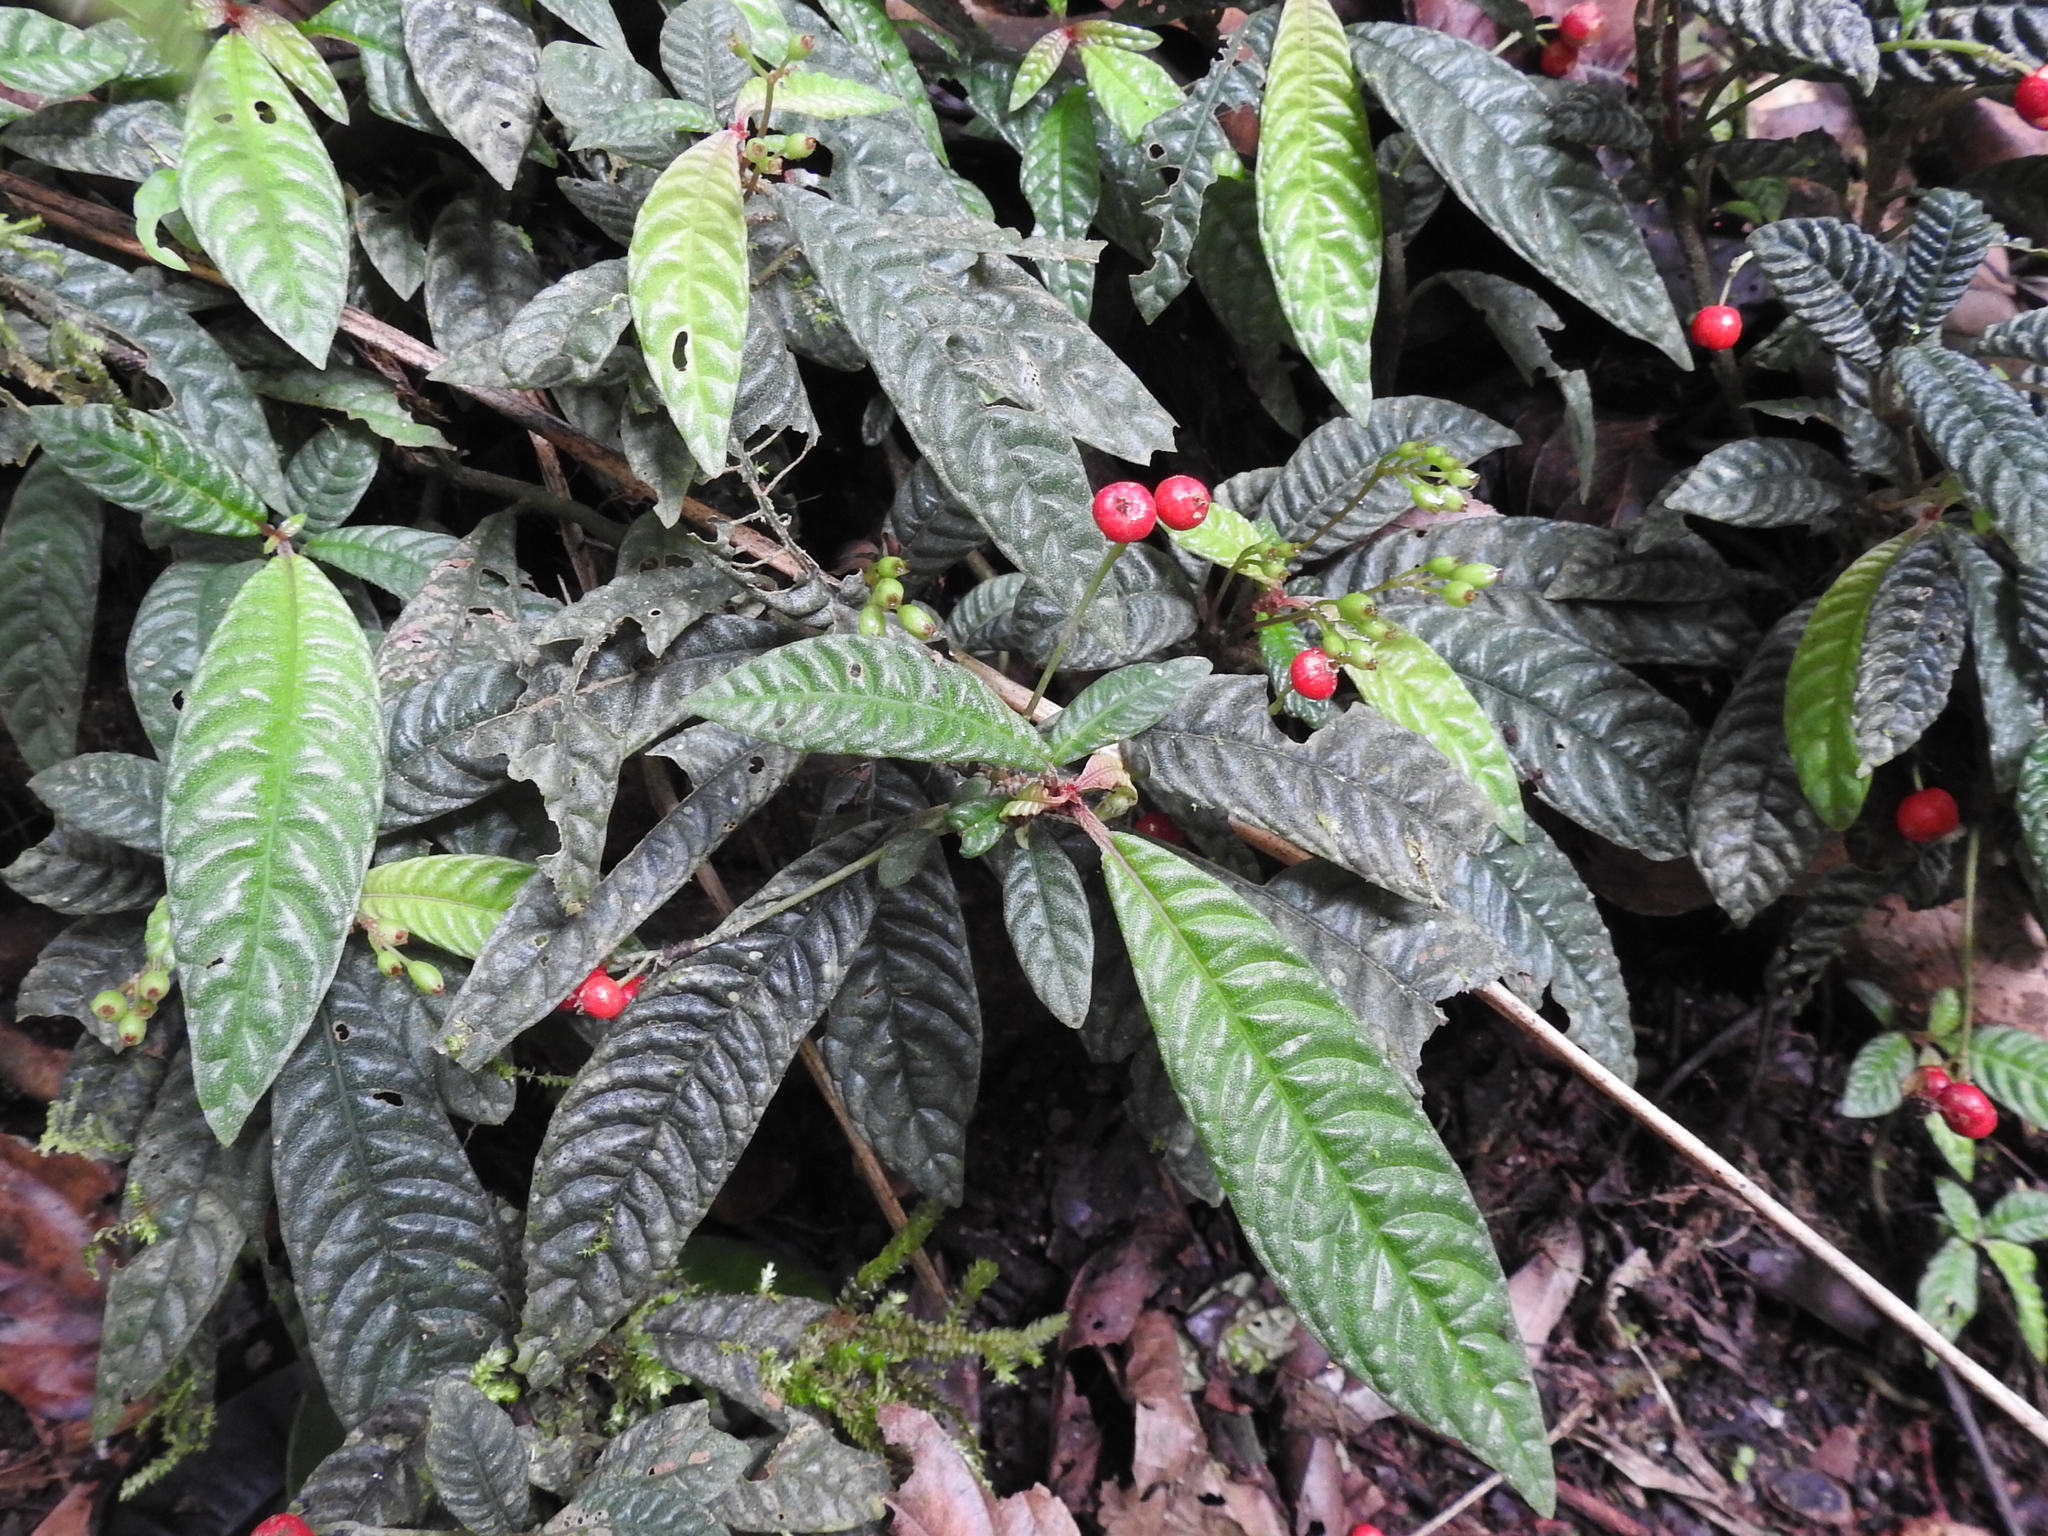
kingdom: Plantae
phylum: Tracheophyta
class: Magnoliopsida
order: Gentianales
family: Rubiaceae
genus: Hoffmannia
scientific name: Hoffmannia pustulata
